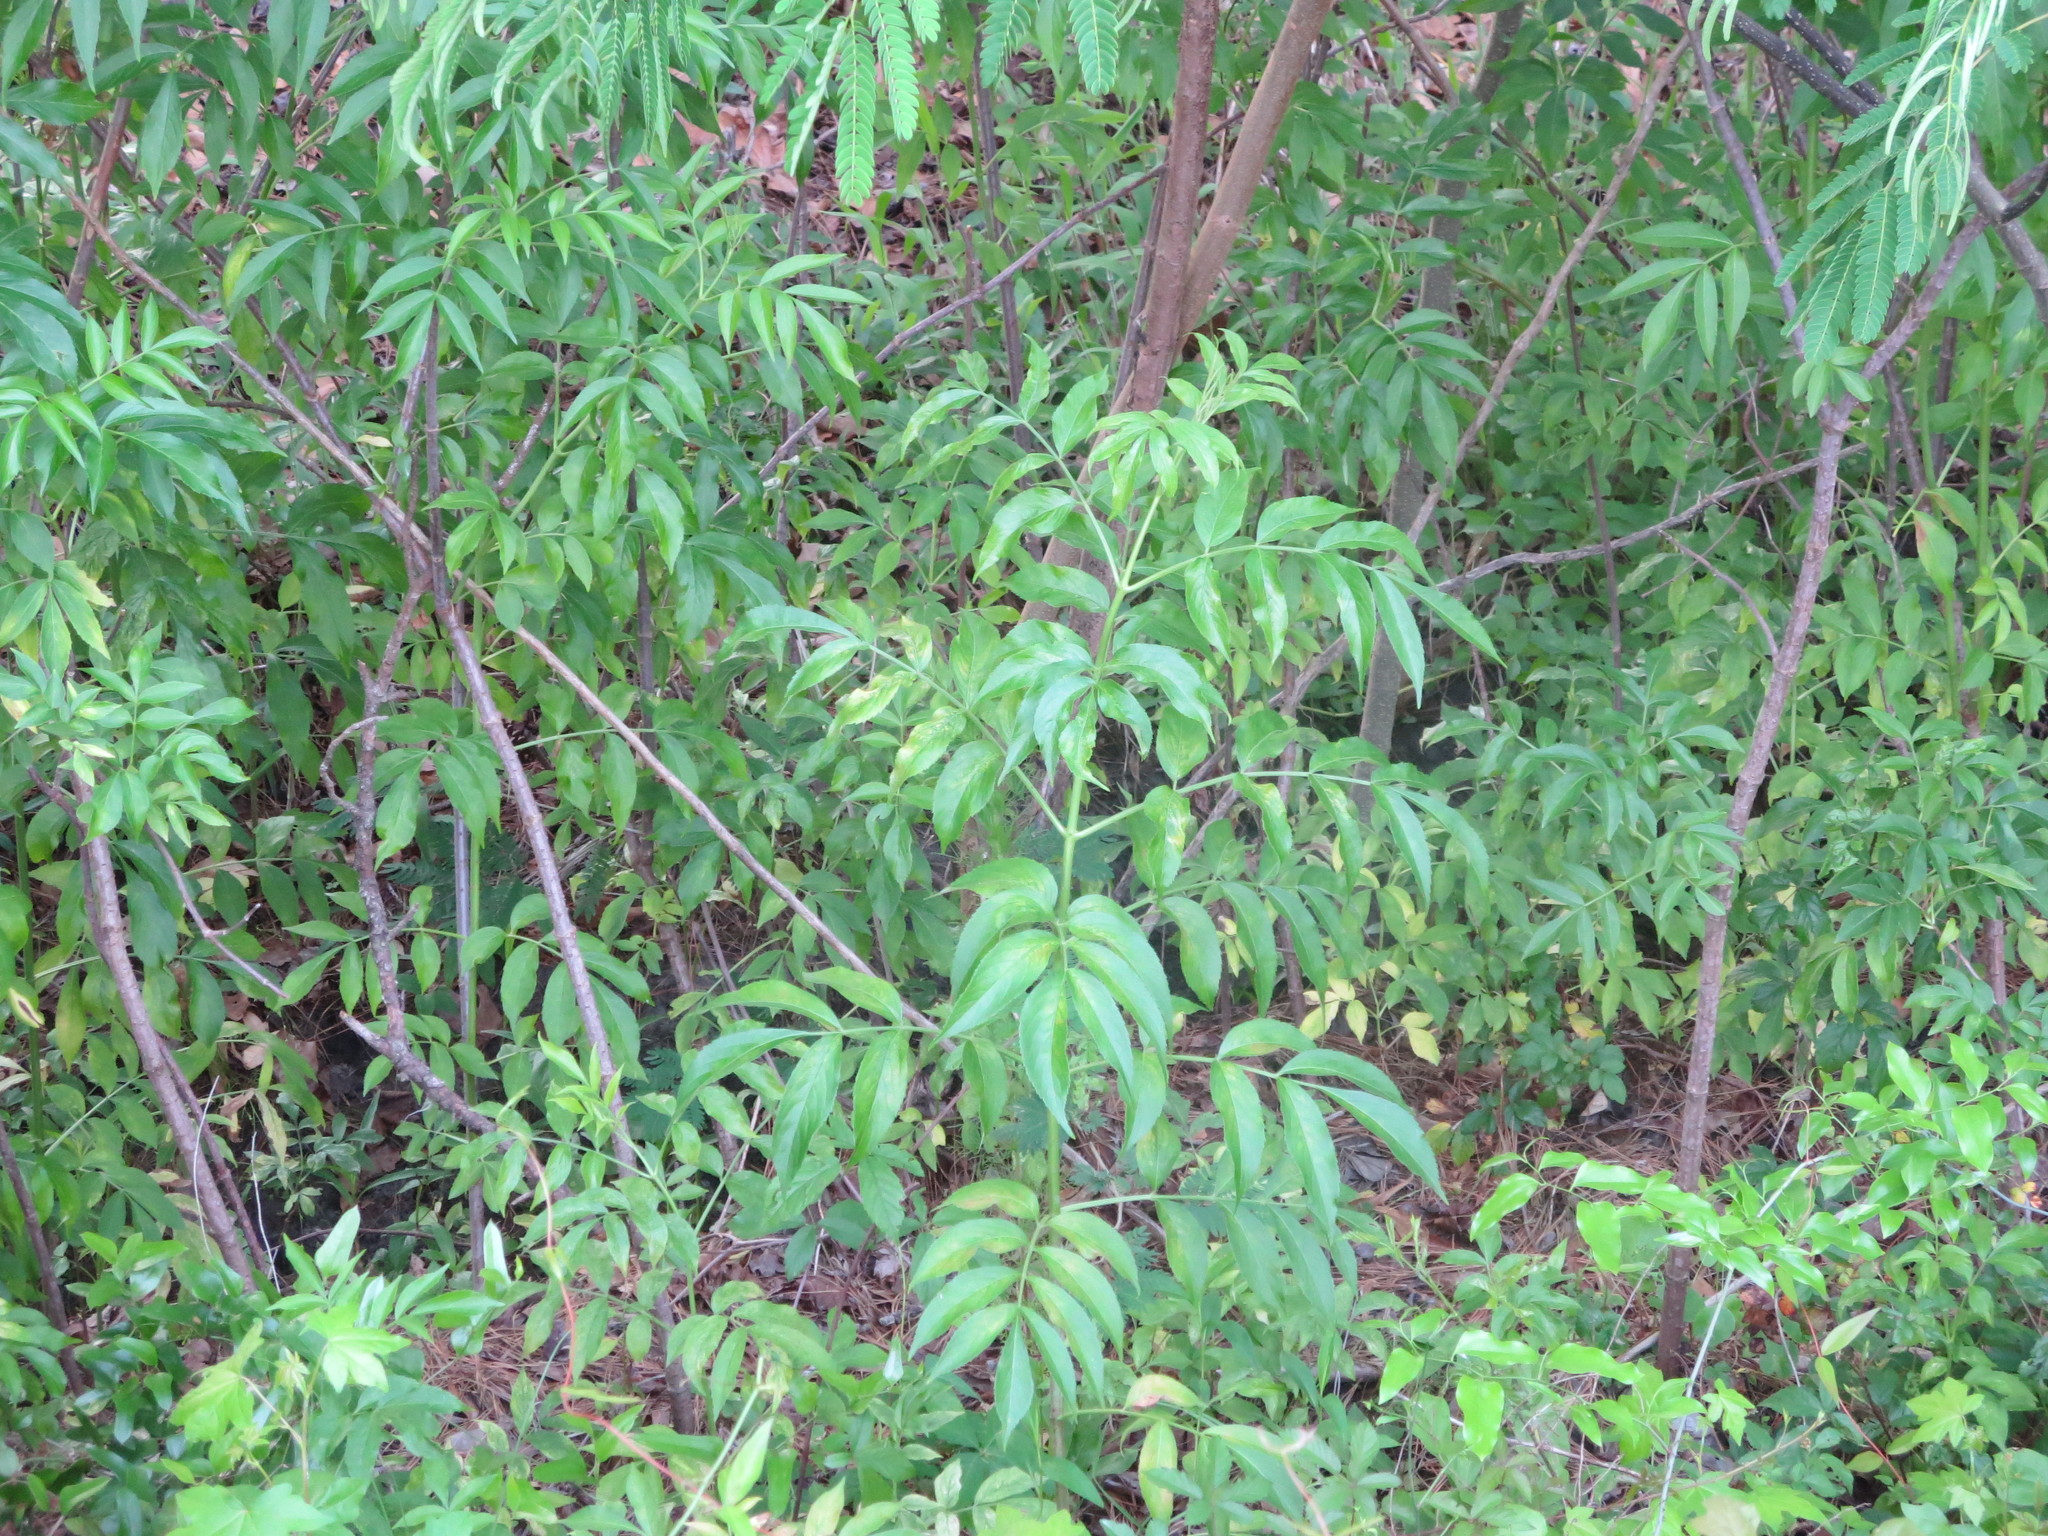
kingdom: Plantae
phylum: Tracheophyta
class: Magnoliopsida
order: Dipsacales
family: Viburnaceae
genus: Sambucus
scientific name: Sambucus canadensis
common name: American elder
